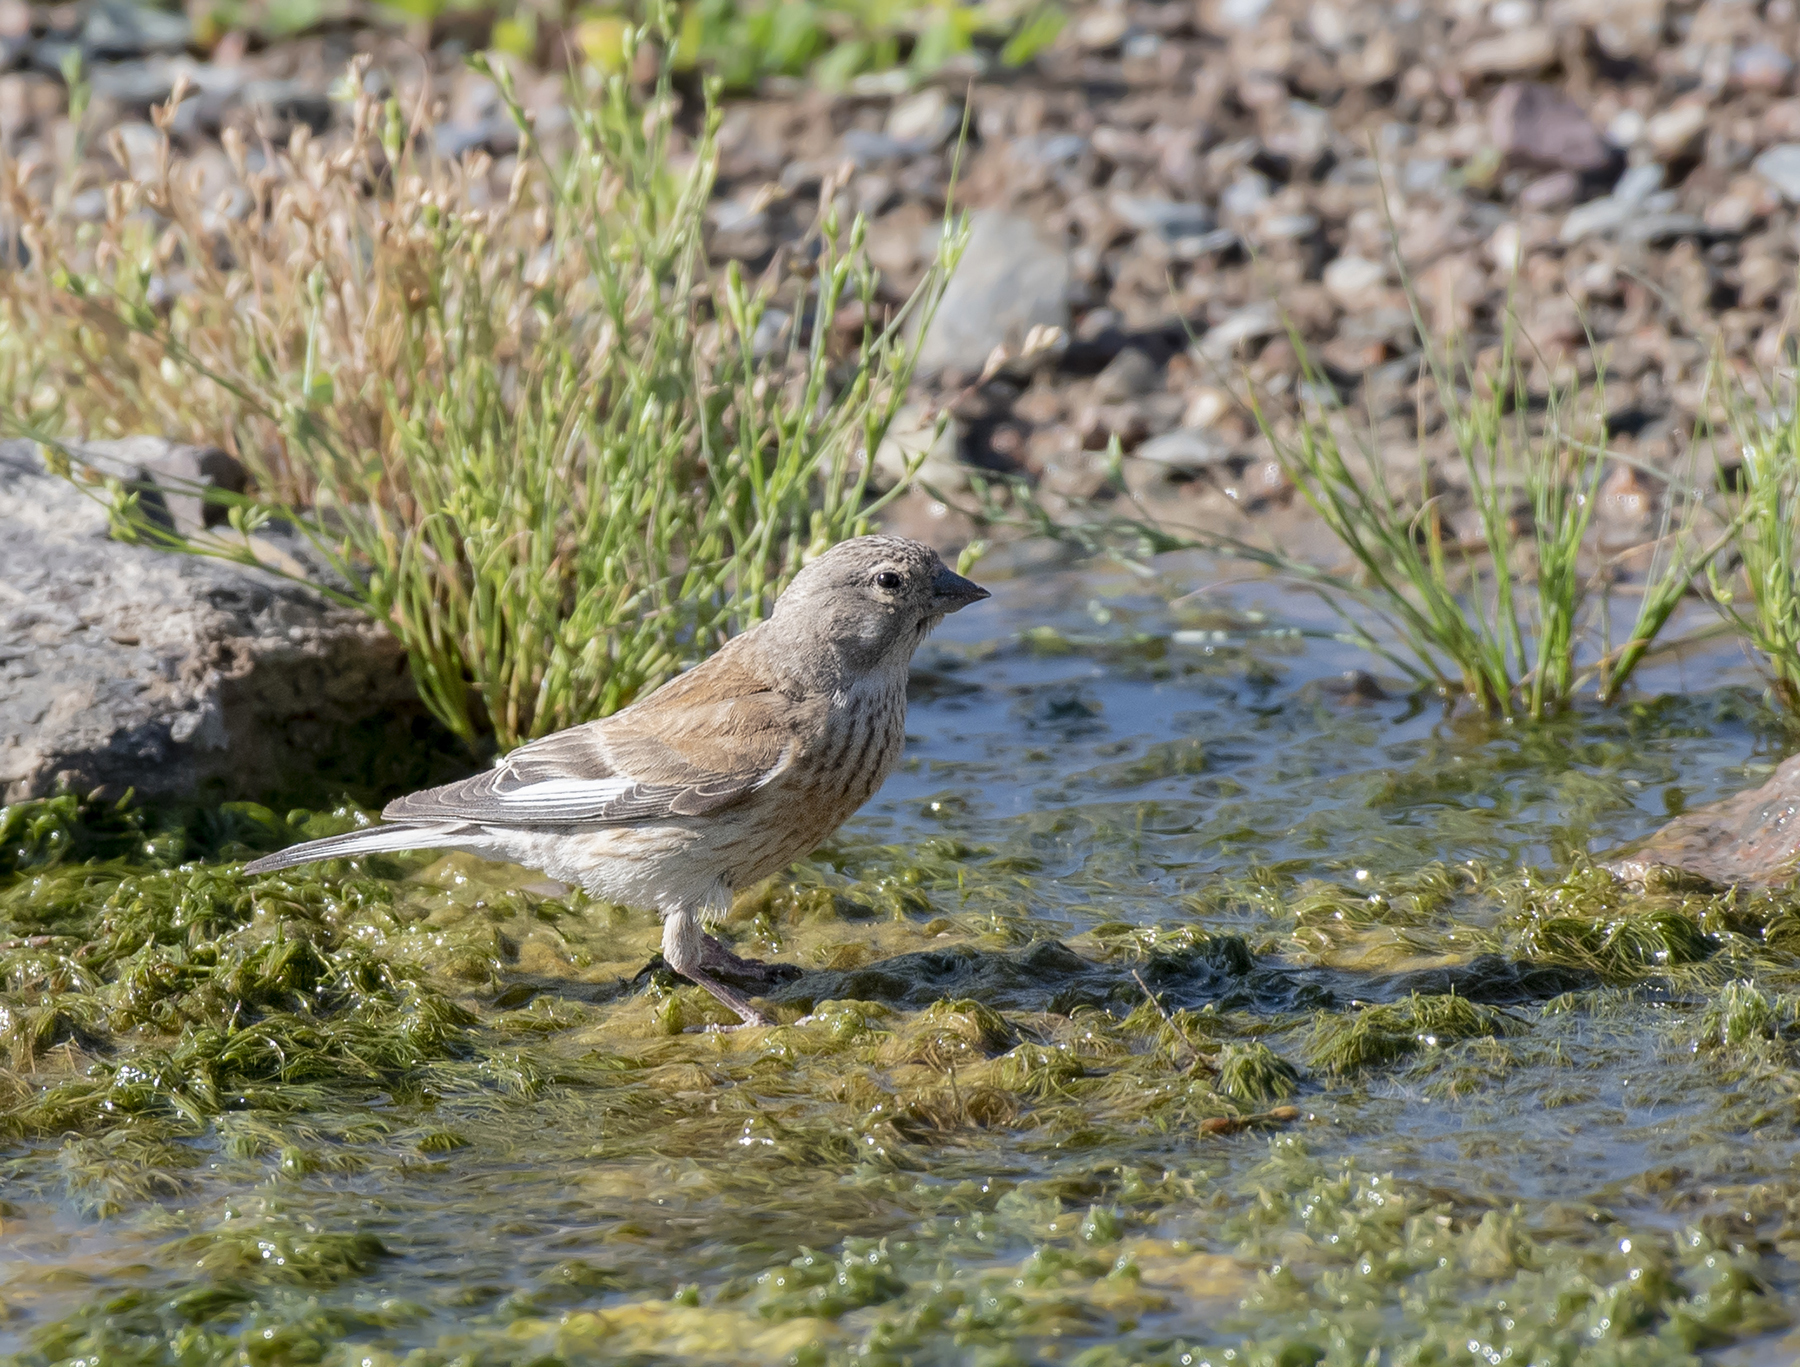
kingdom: Animalia
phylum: Chordata
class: Aves
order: Passeriformes
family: Fringillidae
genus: Linaria
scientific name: Linaria cannabina
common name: Common linnet
